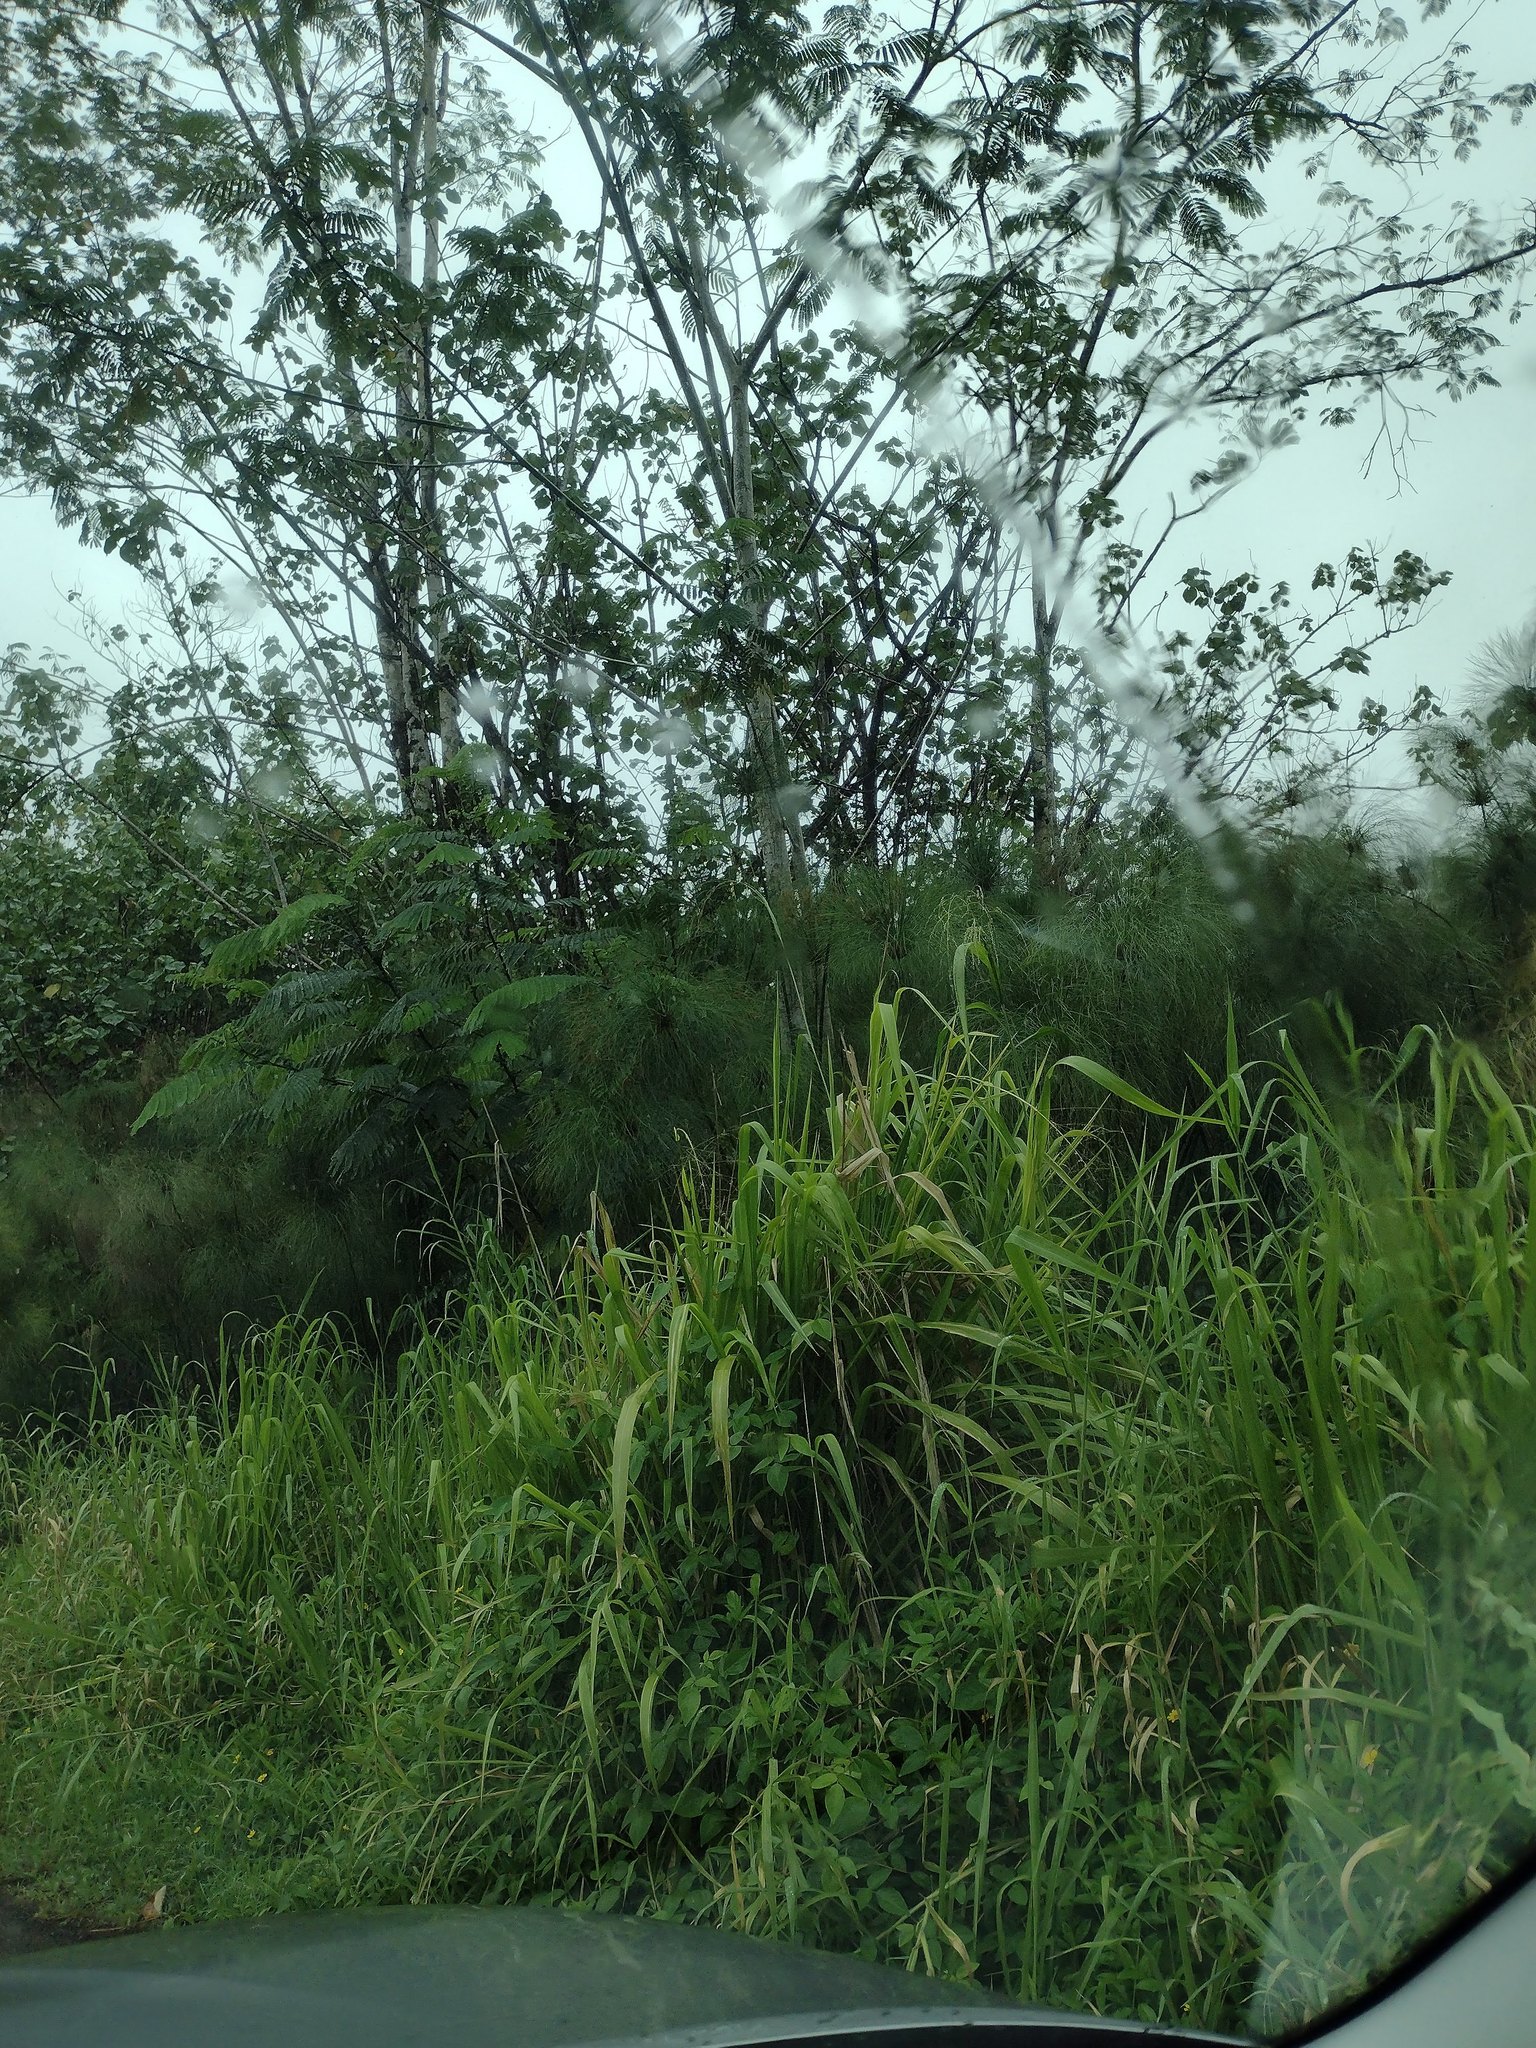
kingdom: Plantae
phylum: Tracheophyta
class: Liliopsida
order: Poales
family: Poaceae
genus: Megathyrsus
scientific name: Megathyrsus maximus
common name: Guineagrass
